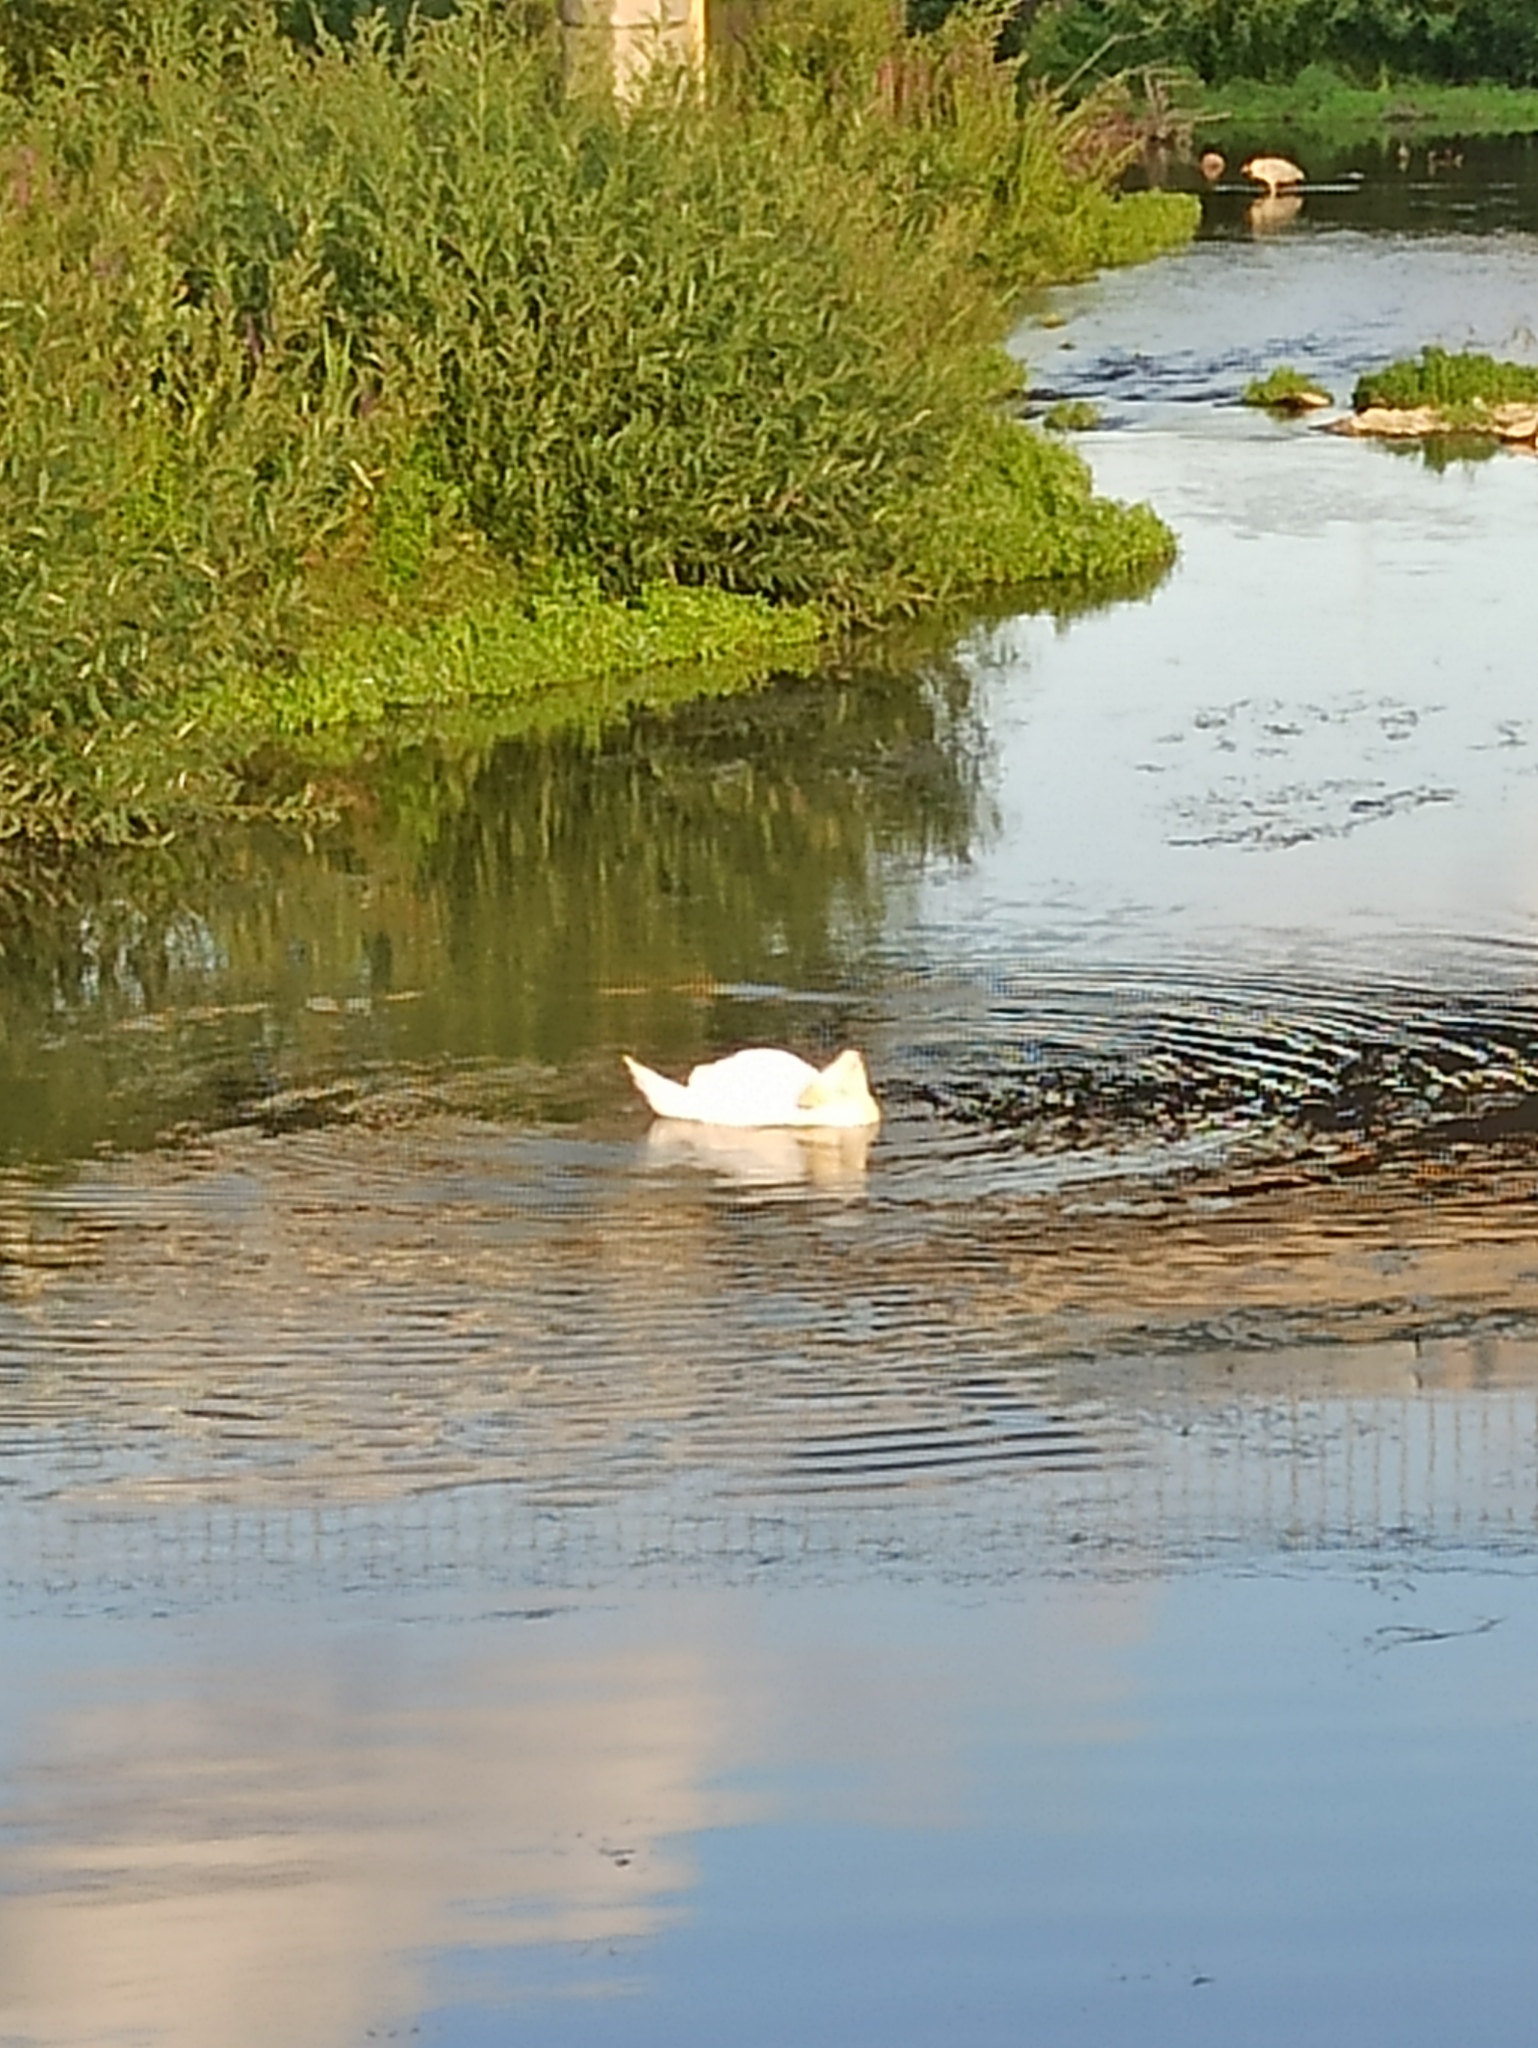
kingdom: Animalia
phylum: Chordata
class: Aves
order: Anseriformes
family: Anatidae
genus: Cygnus
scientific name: Cygnus olor
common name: Mute swan
